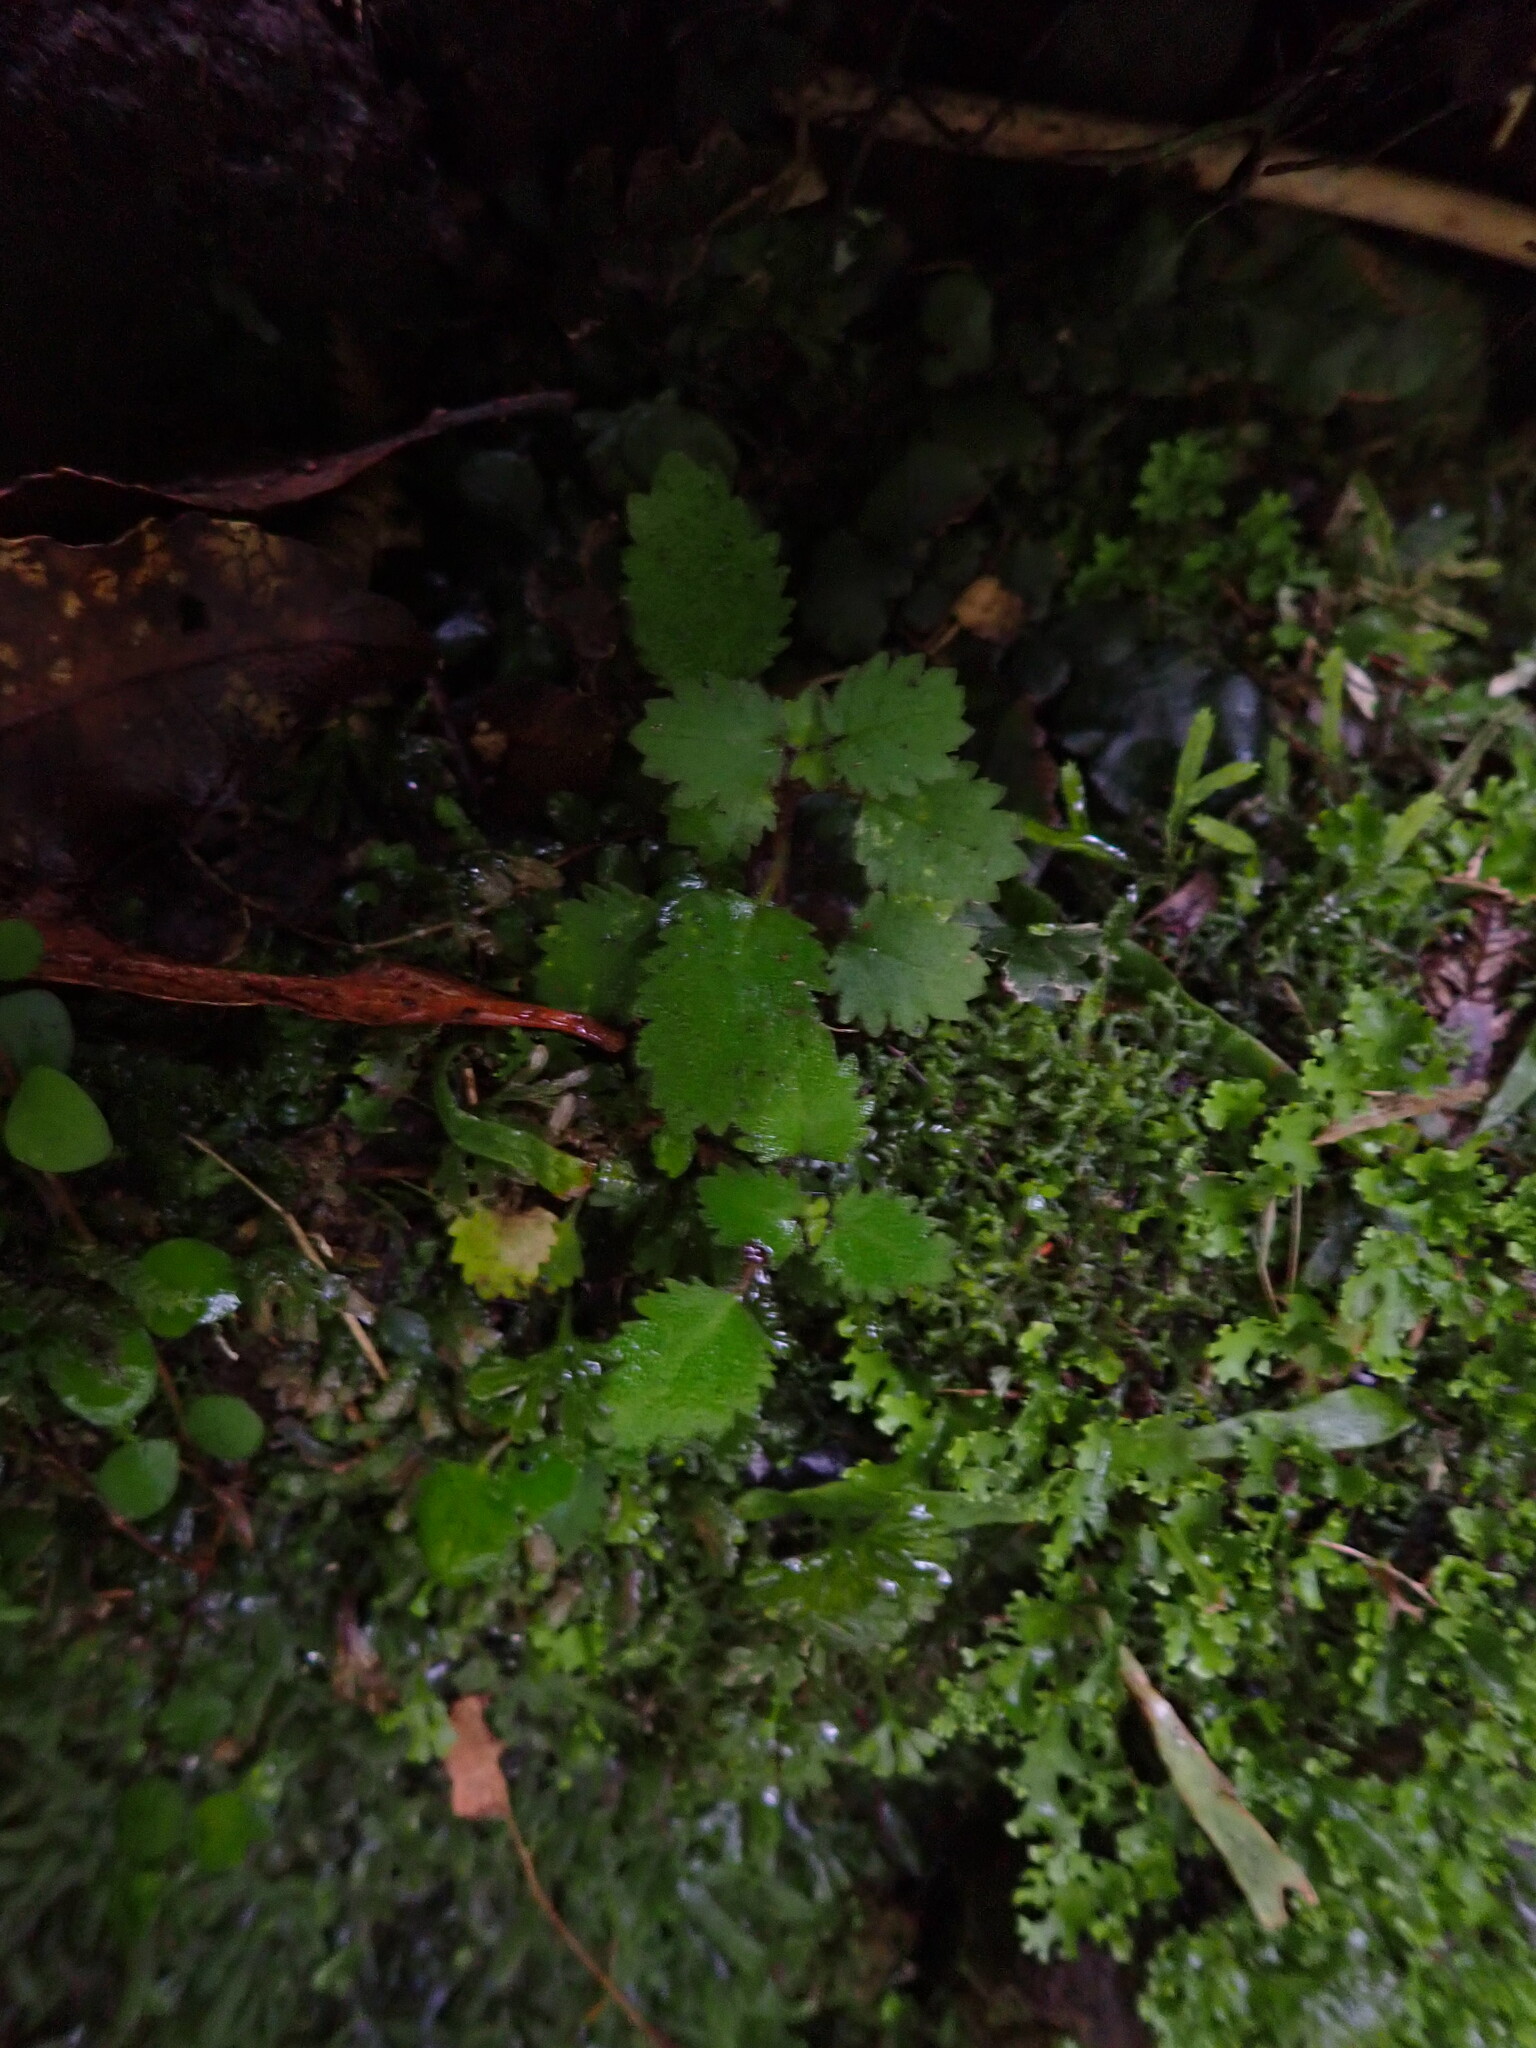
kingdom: Plantae
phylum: Tracheophyta
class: Magnoliopsida
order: Lamiales
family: Calceolariaceae
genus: Jovellana
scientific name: Jovellana repens
